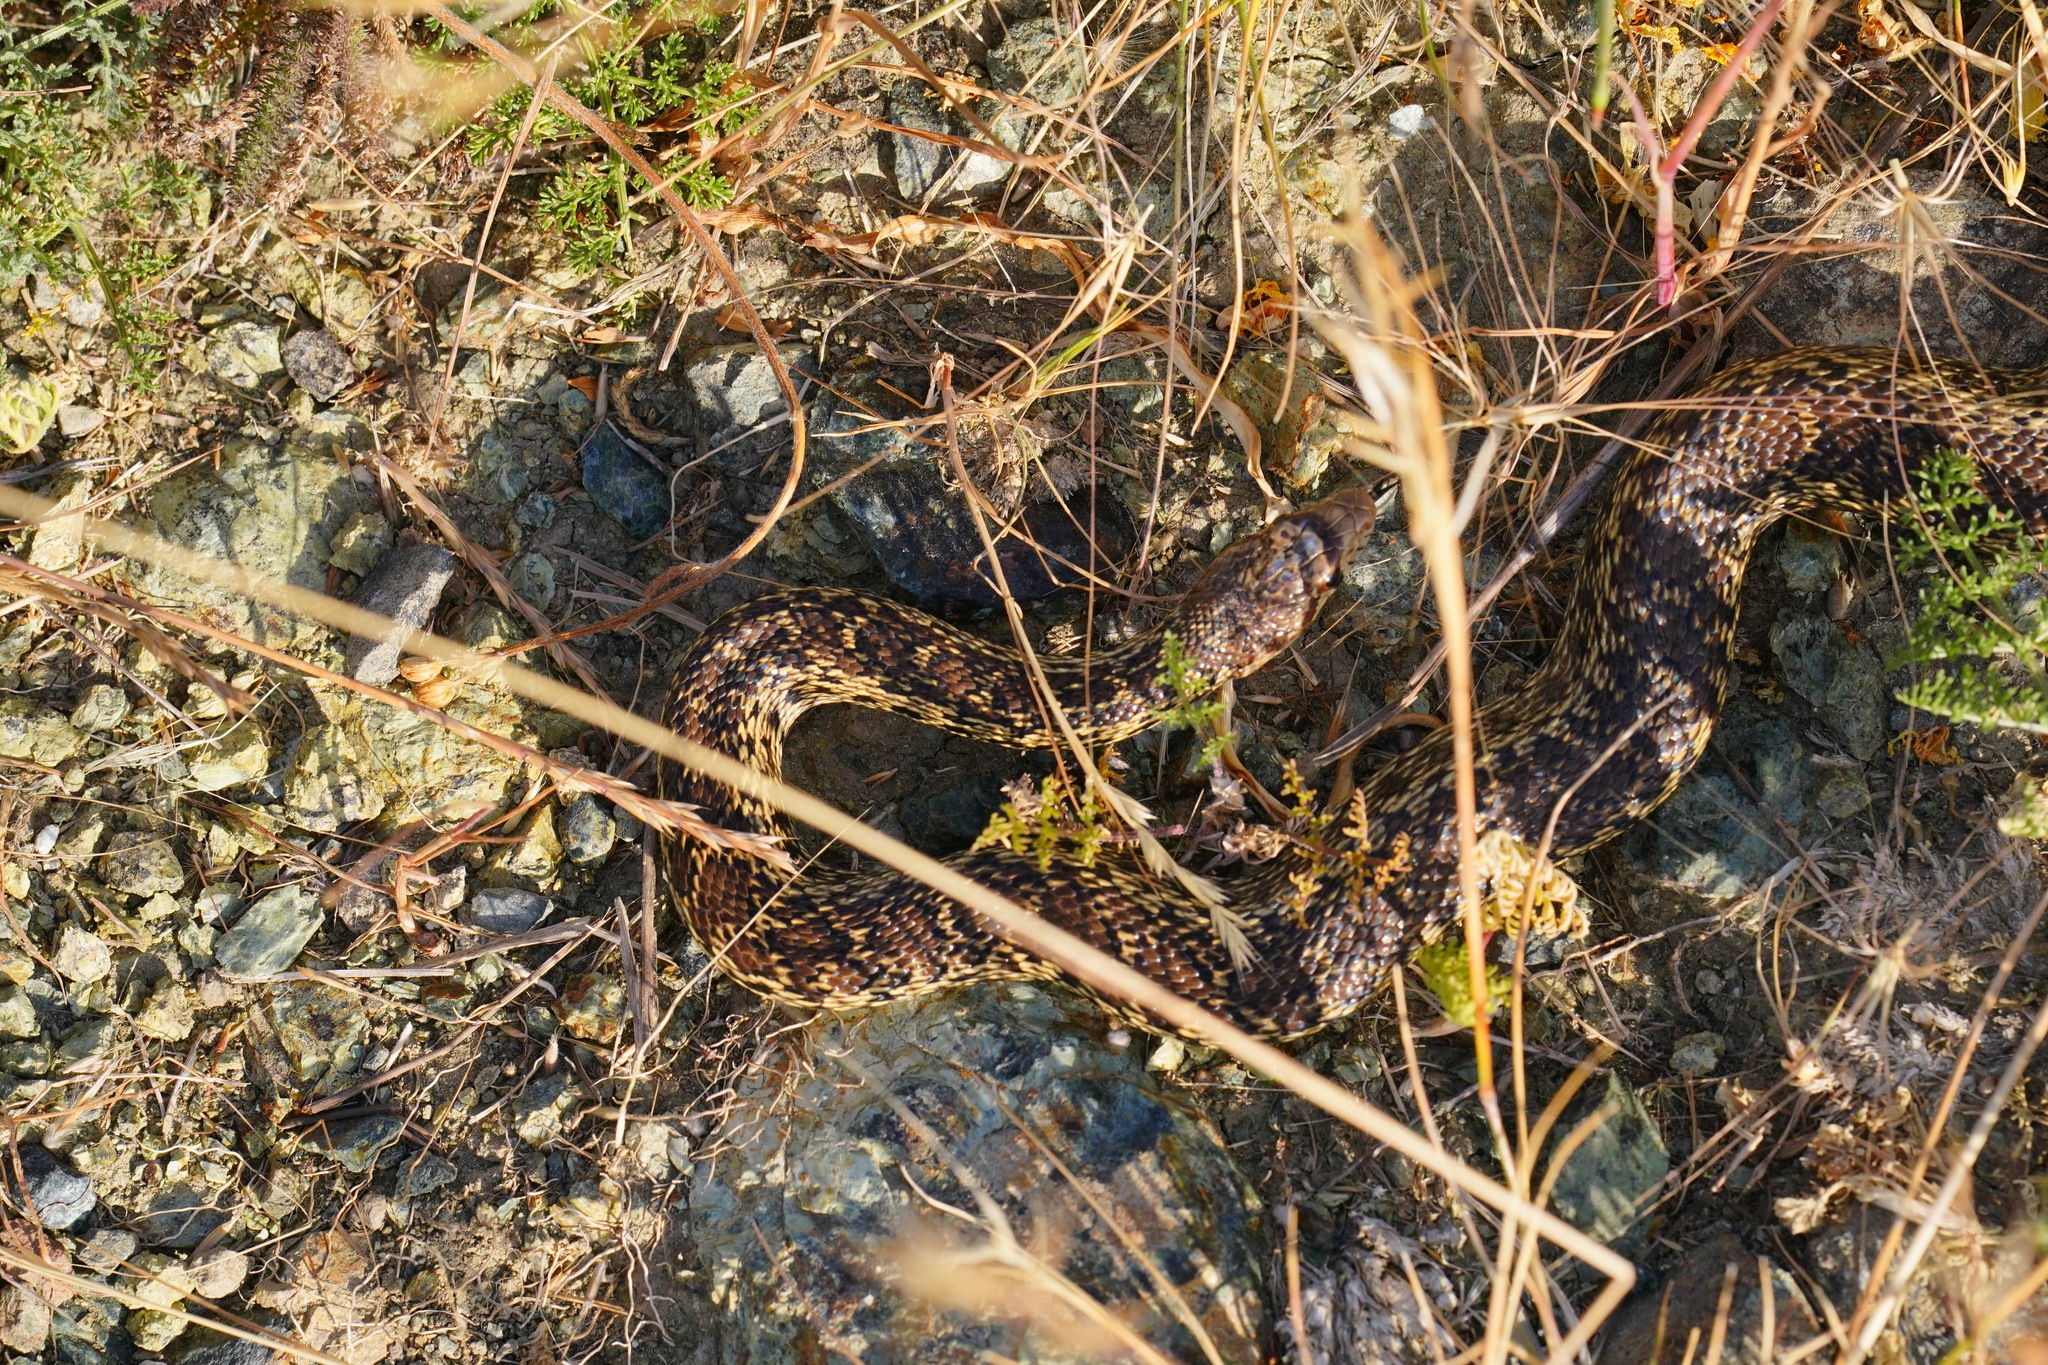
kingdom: Animalia
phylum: Chordata
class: Squamata
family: Colubridae
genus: Pituophis
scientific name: Pituophis catenifer
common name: Gopher snake
